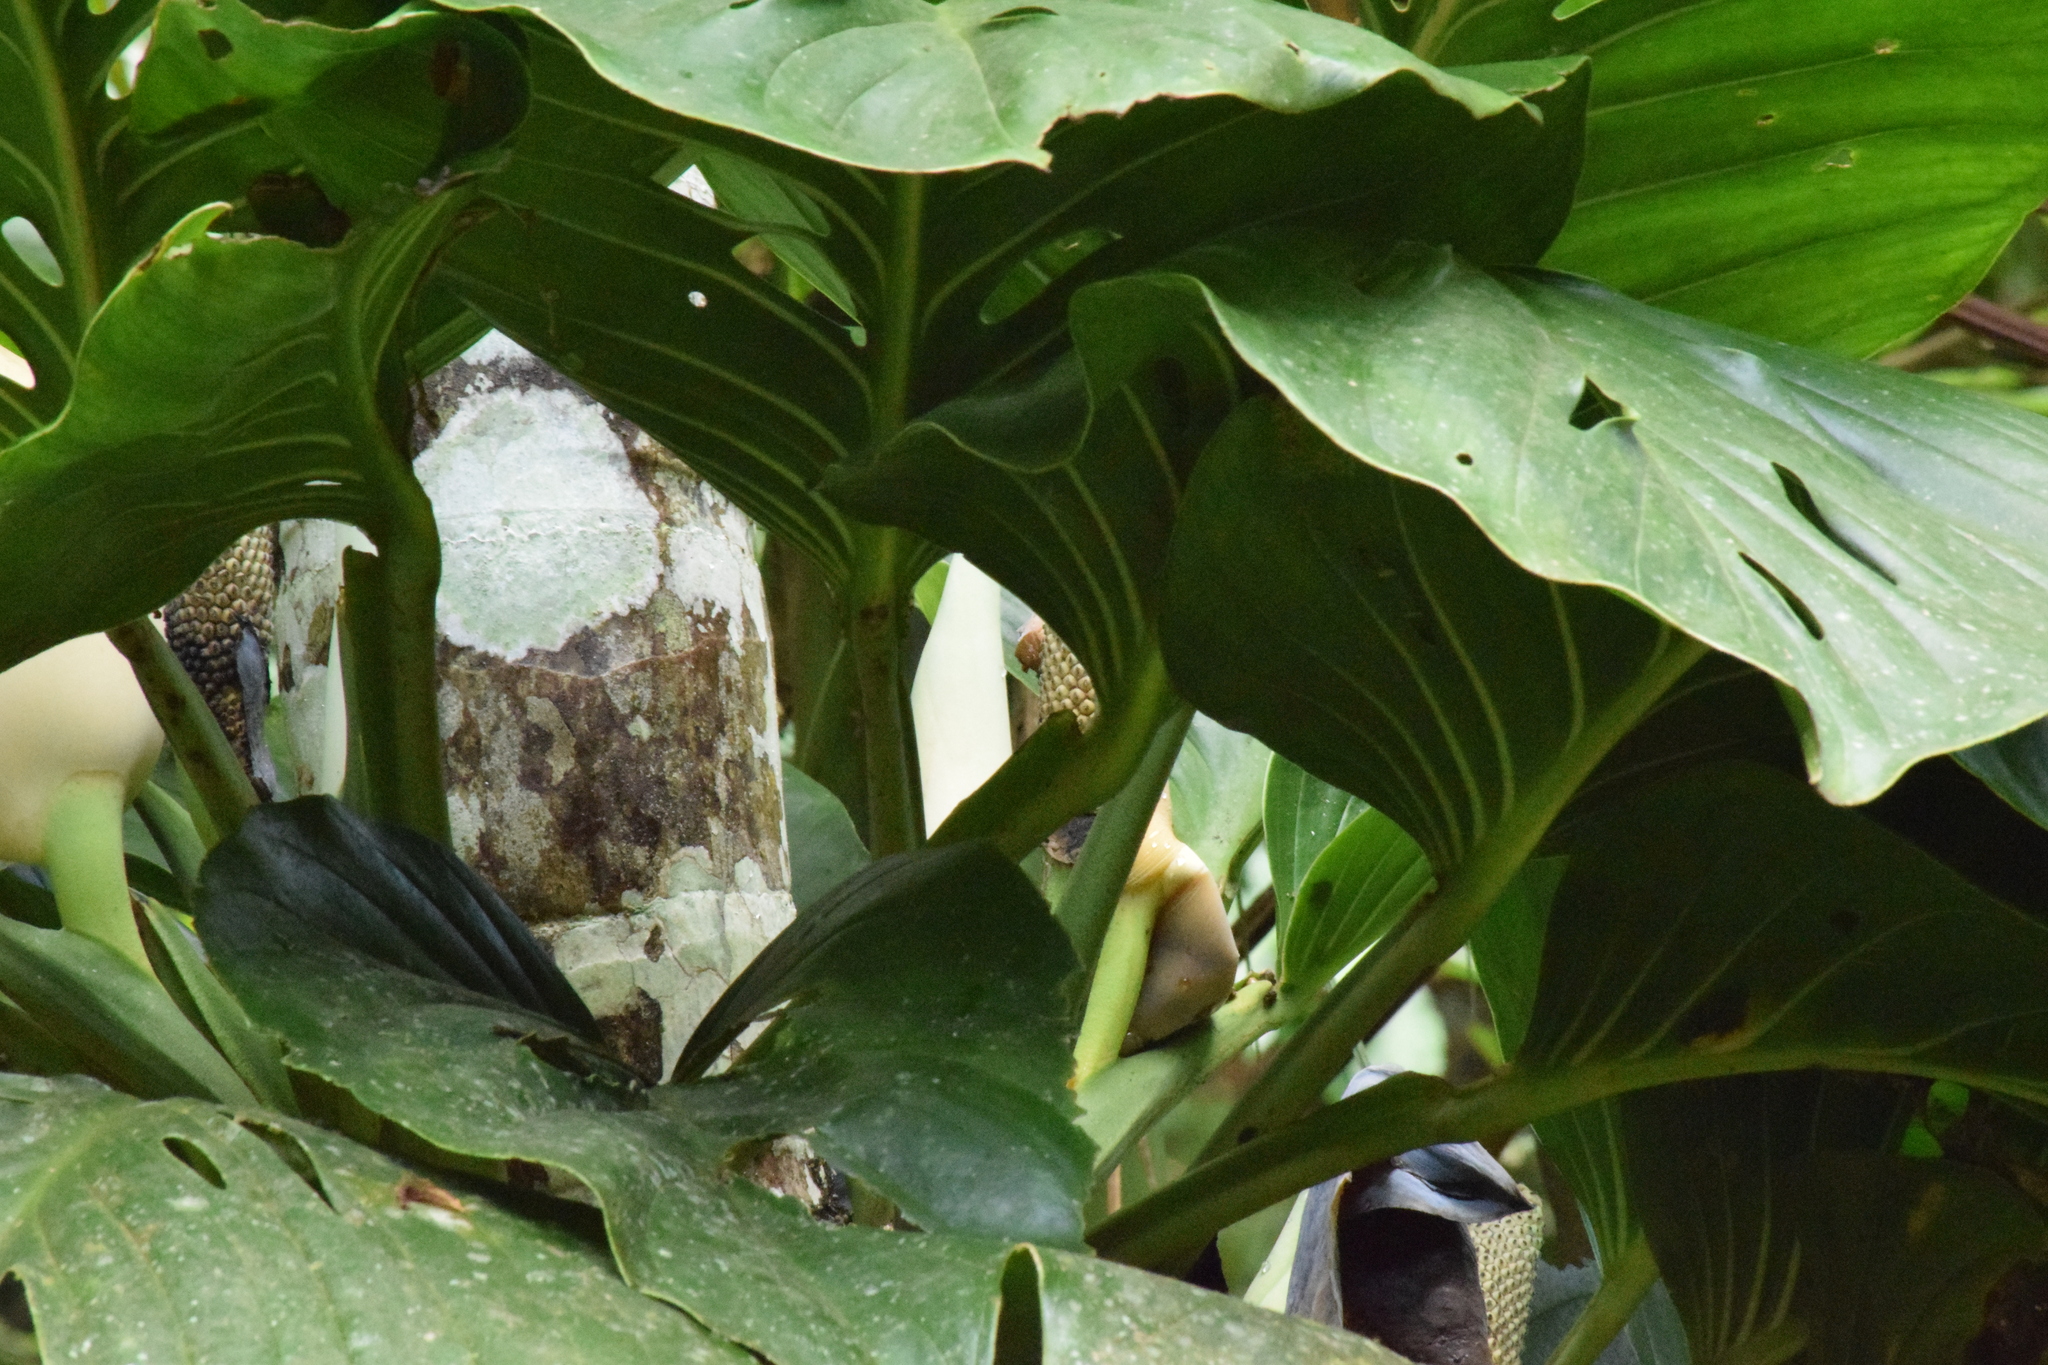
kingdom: Plantae
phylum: Tracheophyta
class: Liliopsida
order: Alismatales
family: Araceae
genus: Monstera
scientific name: Monstera adansonii
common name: Tarovine
